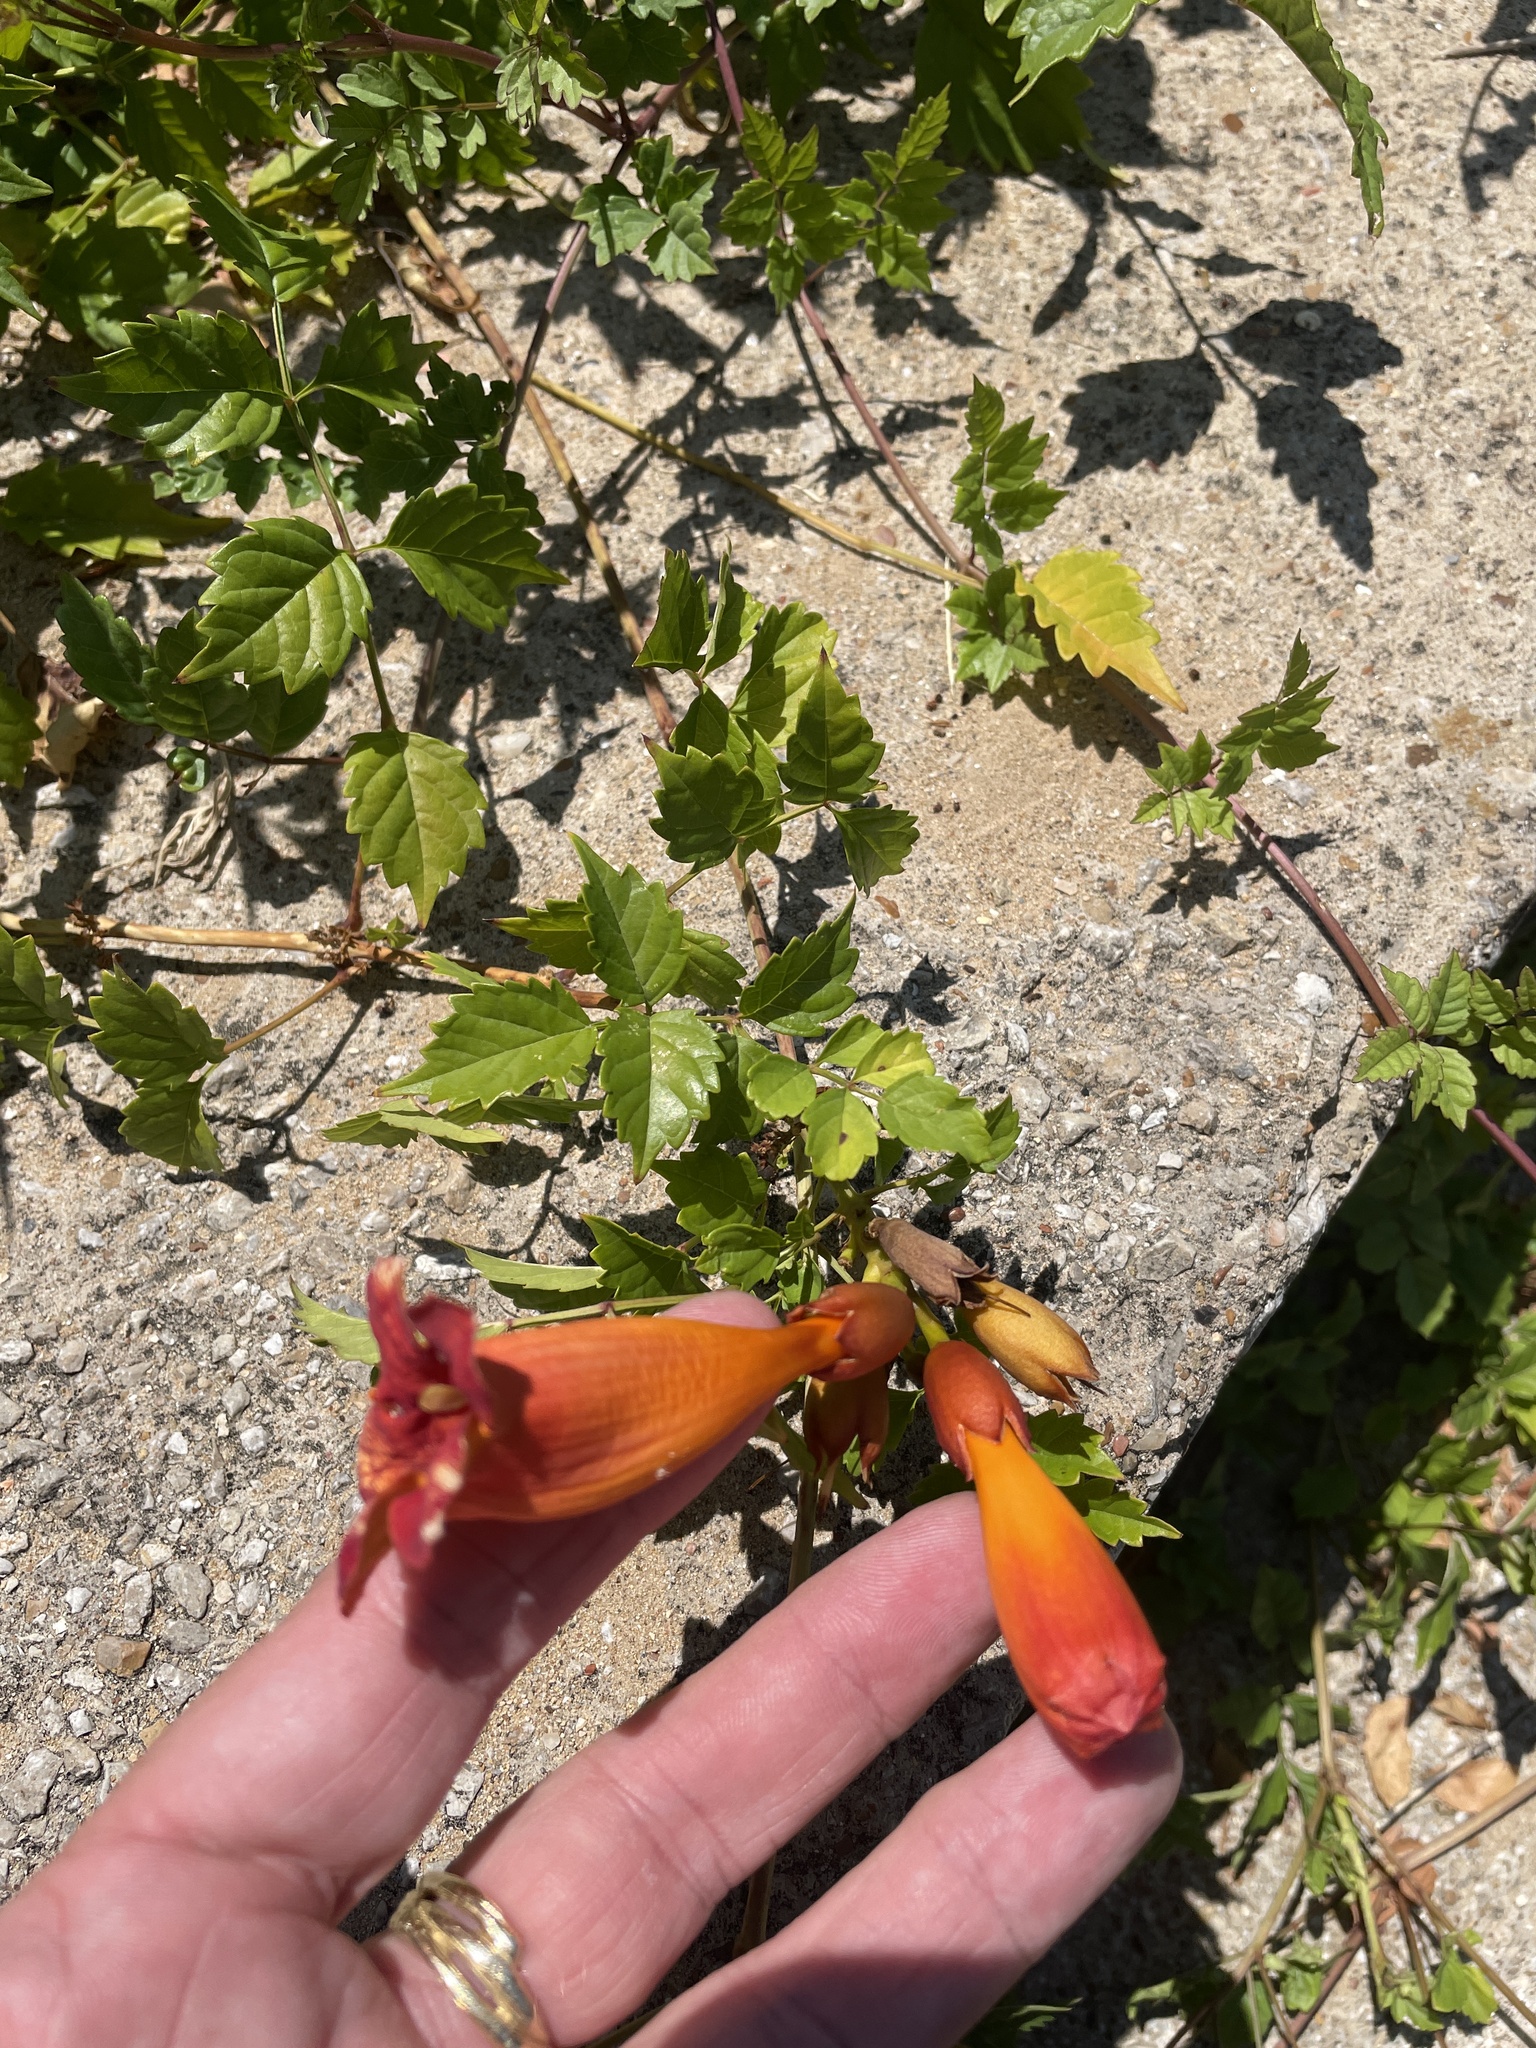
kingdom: Plantae
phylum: Tracheophyta
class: Magnoliopsida
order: Lamiales
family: Bignoniaceae
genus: Campsis
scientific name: Campsis radicans
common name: Trumpet-creeper
